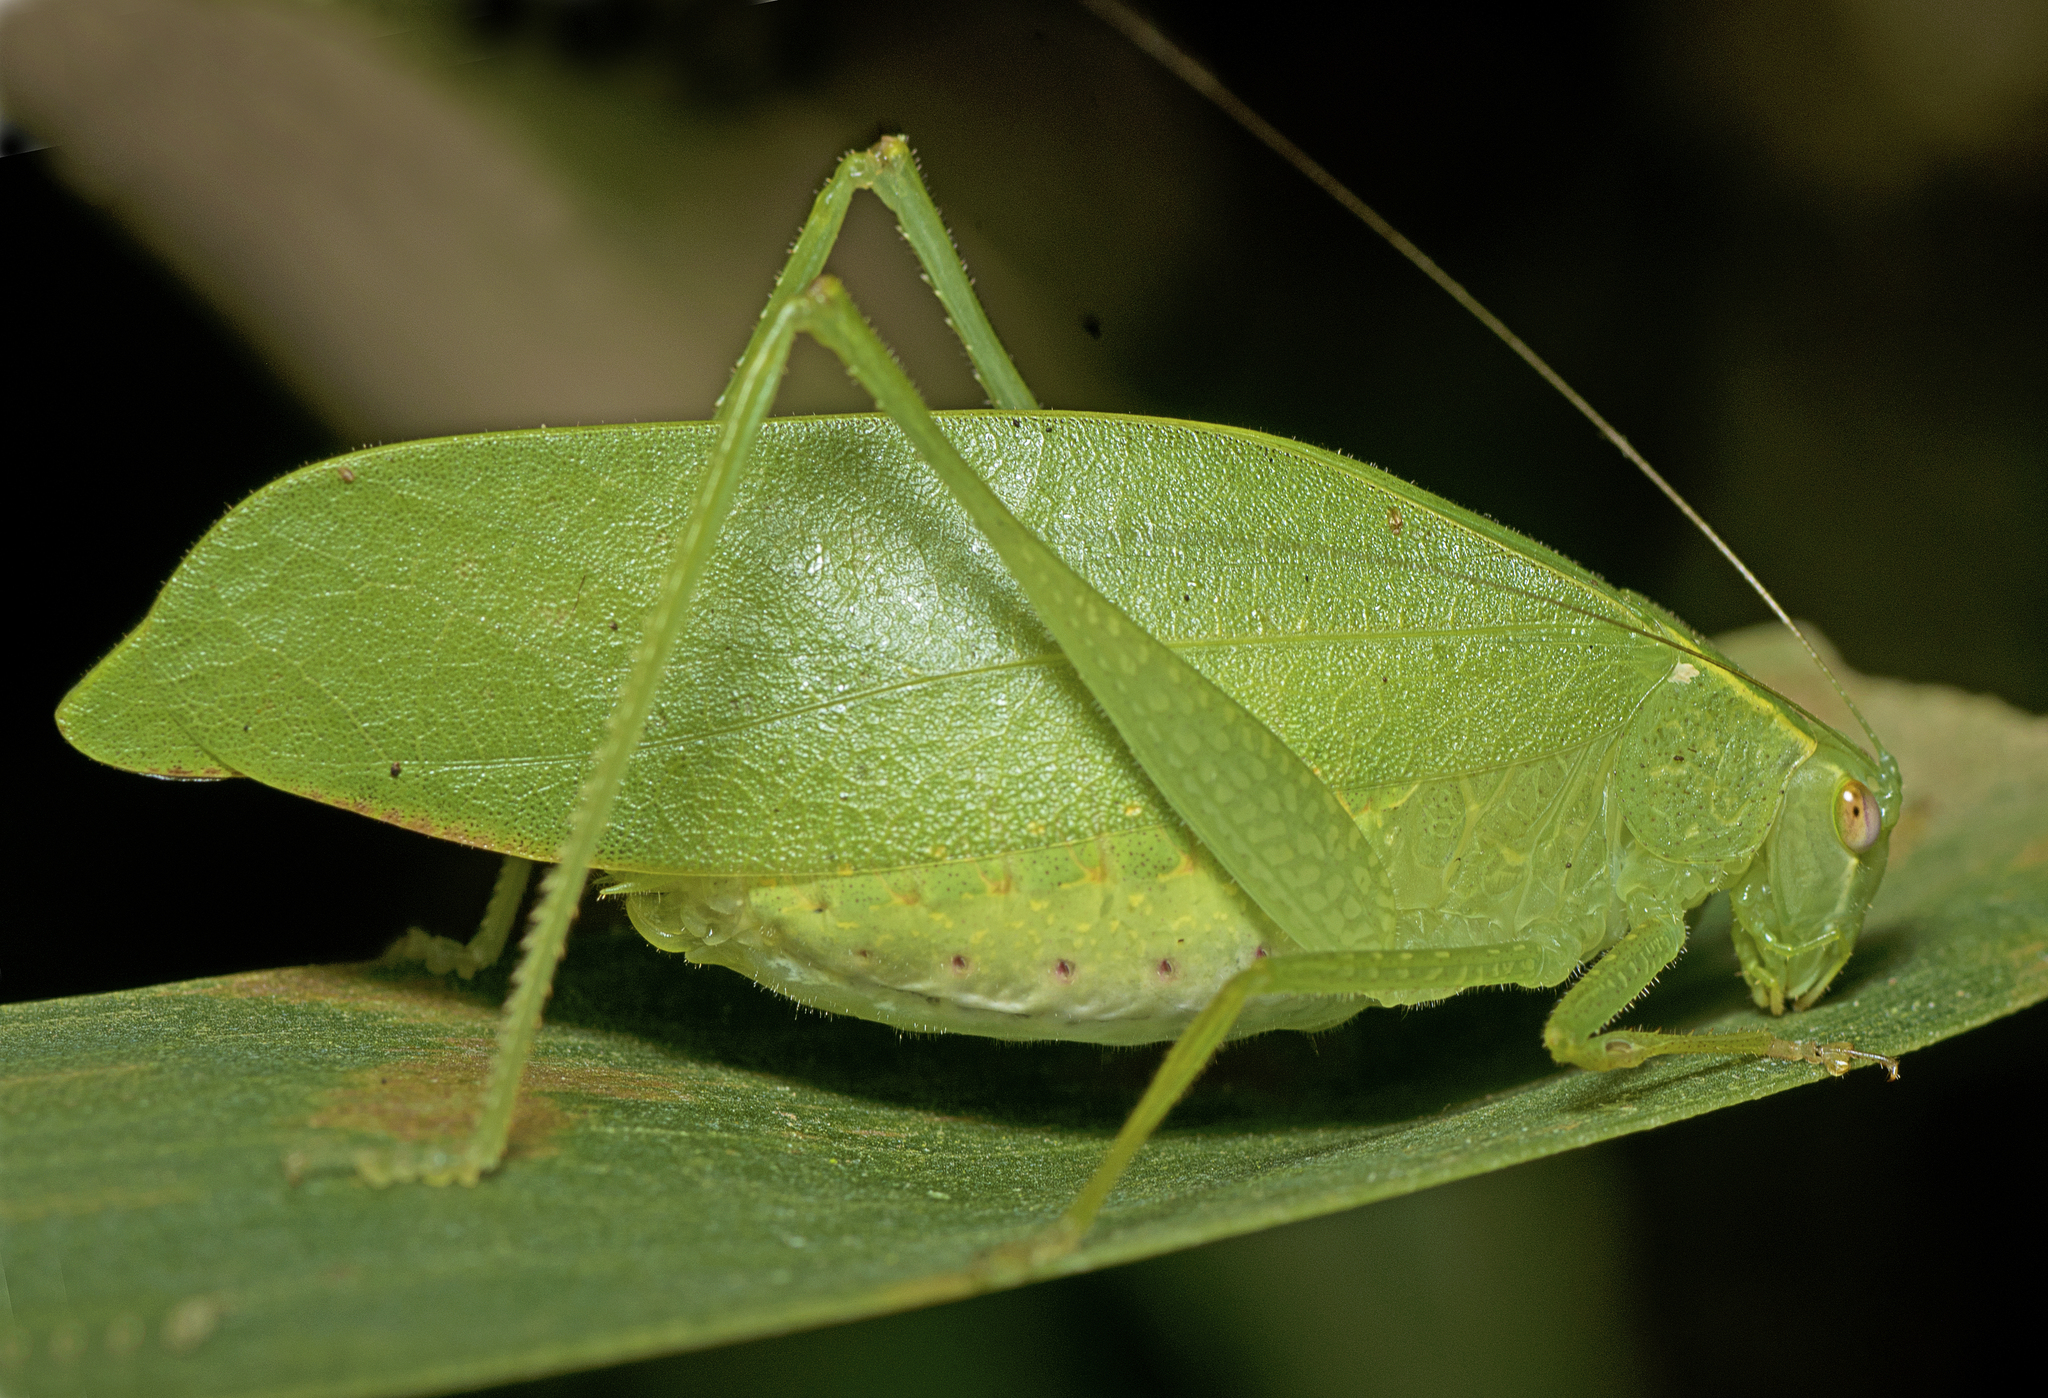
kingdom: Animalia
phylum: Arthropoda
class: Insecta
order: Orthoptera
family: Tettigoniidae
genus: Diastella
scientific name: Diastella latifolia
